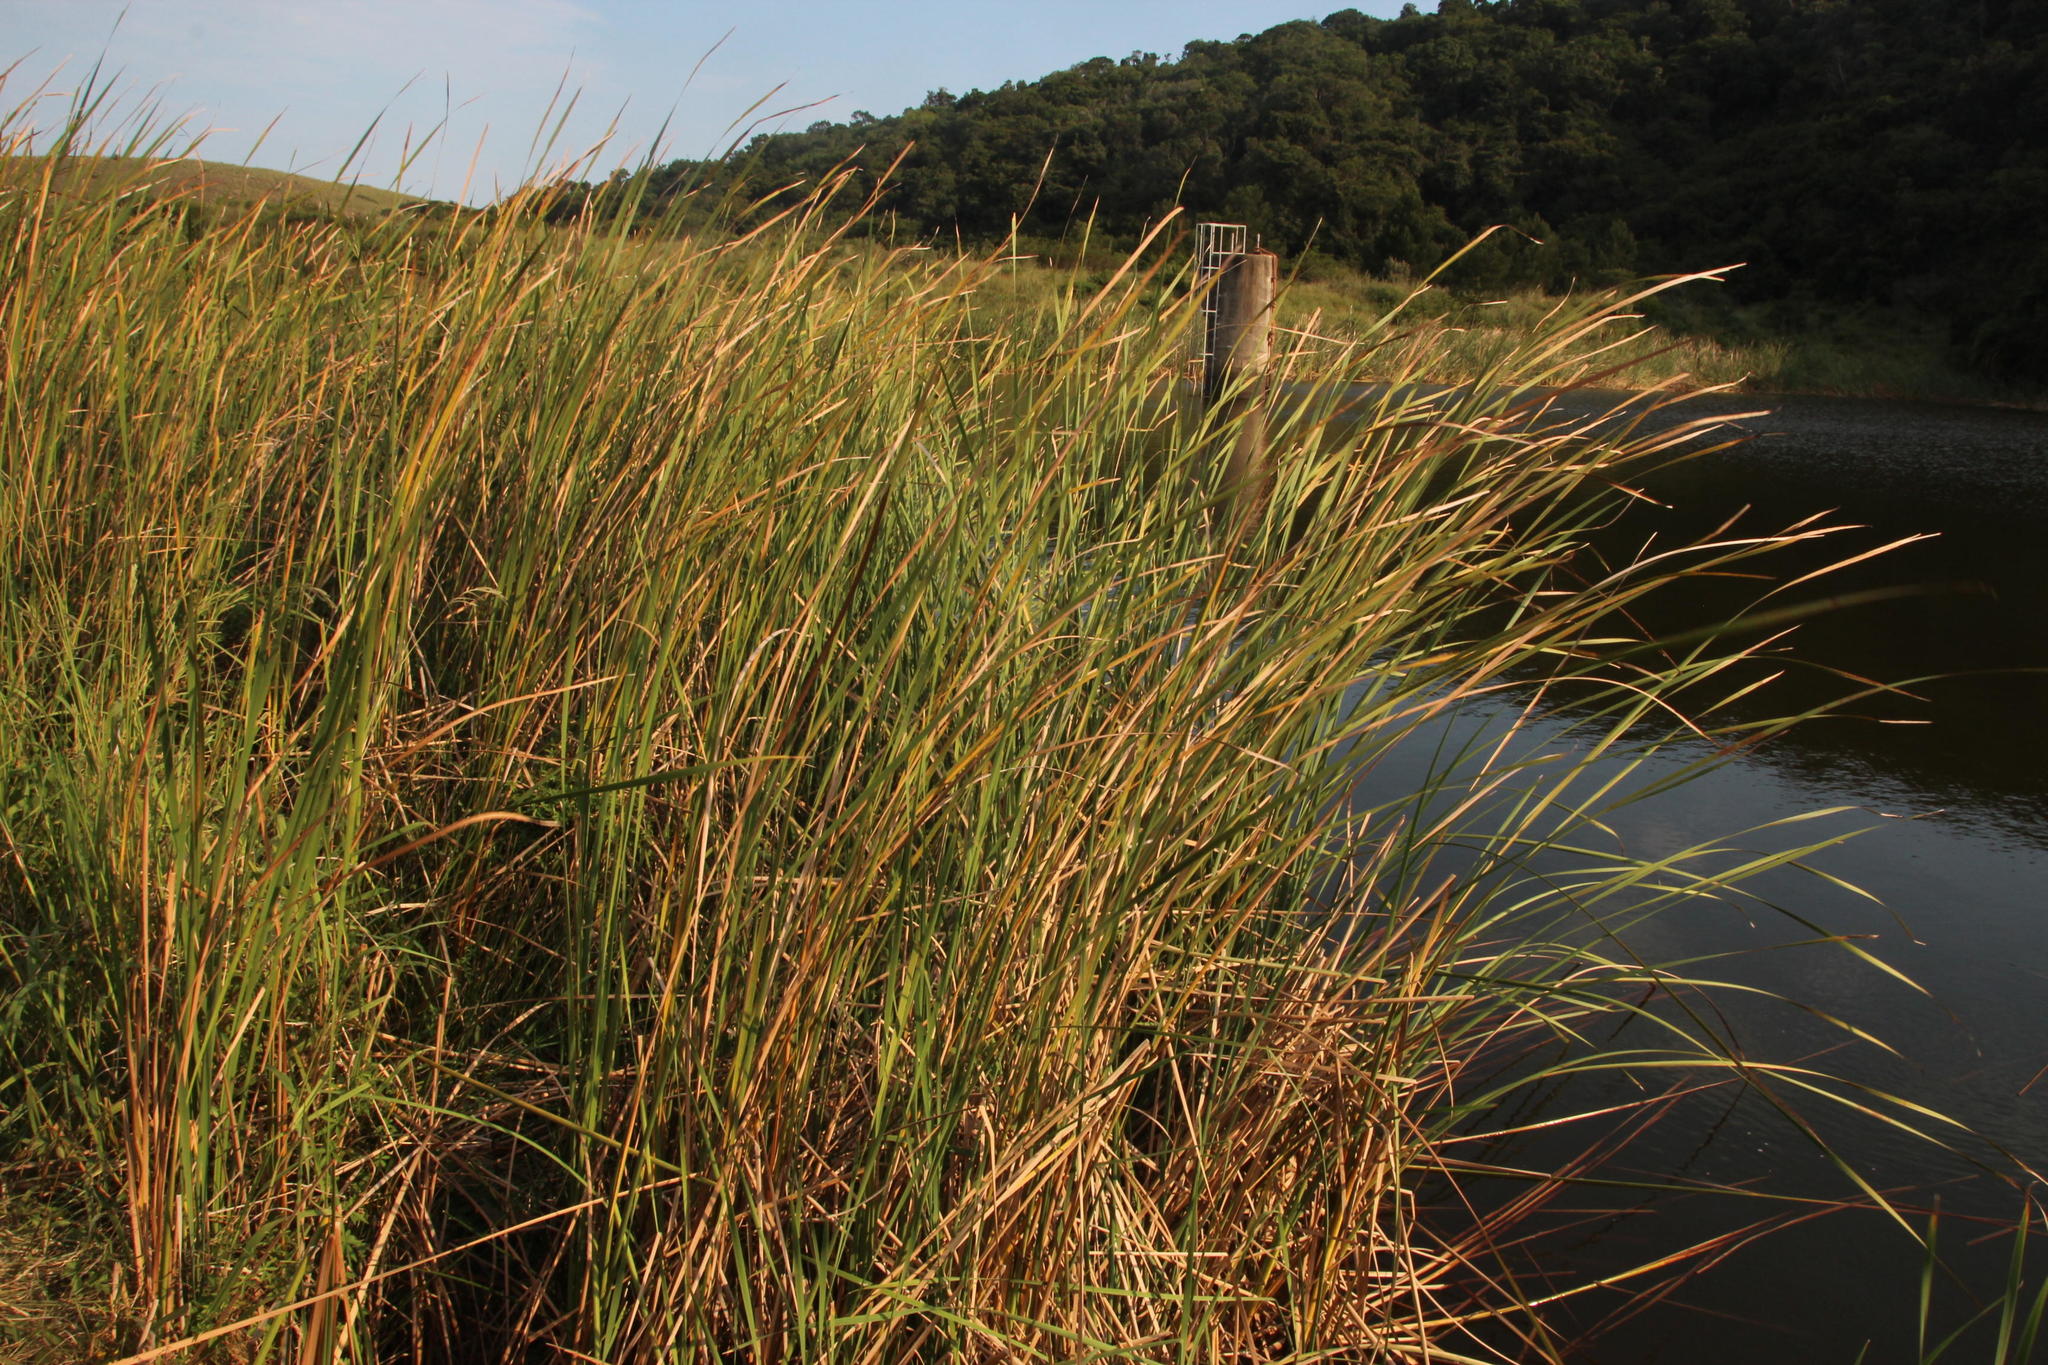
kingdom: Plantae
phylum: Tracheophyta
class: Liliopsida
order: Poales
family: Typhaceae
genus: Typha
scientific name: Typha capensis
